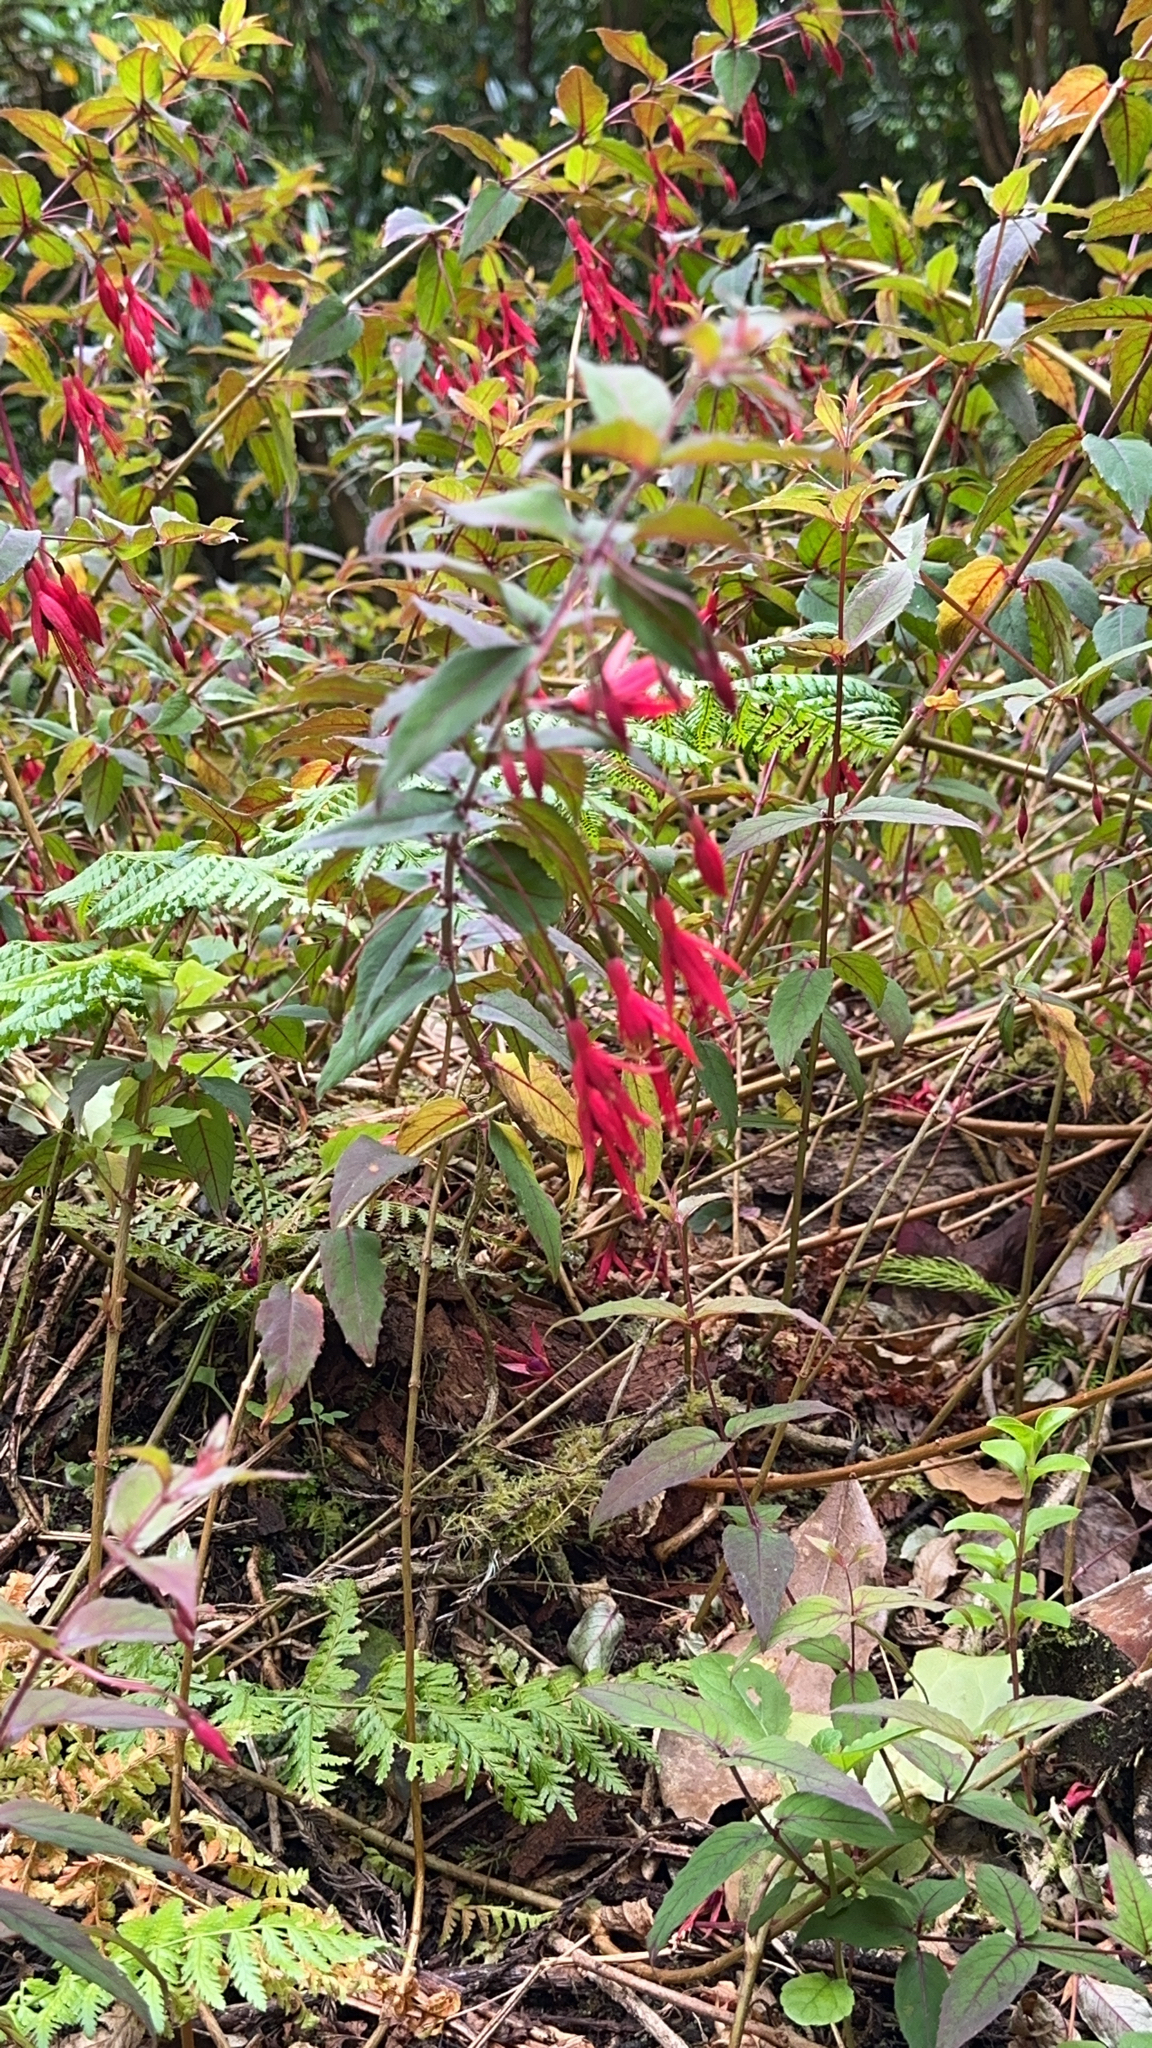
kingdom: Plantae
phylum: Tracheophyta
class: Magnoliopsida
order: Myrtales
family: Onagraceae
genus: Fuchsia
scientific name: Fuchsia magellanica
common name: Hardy fuchsia
